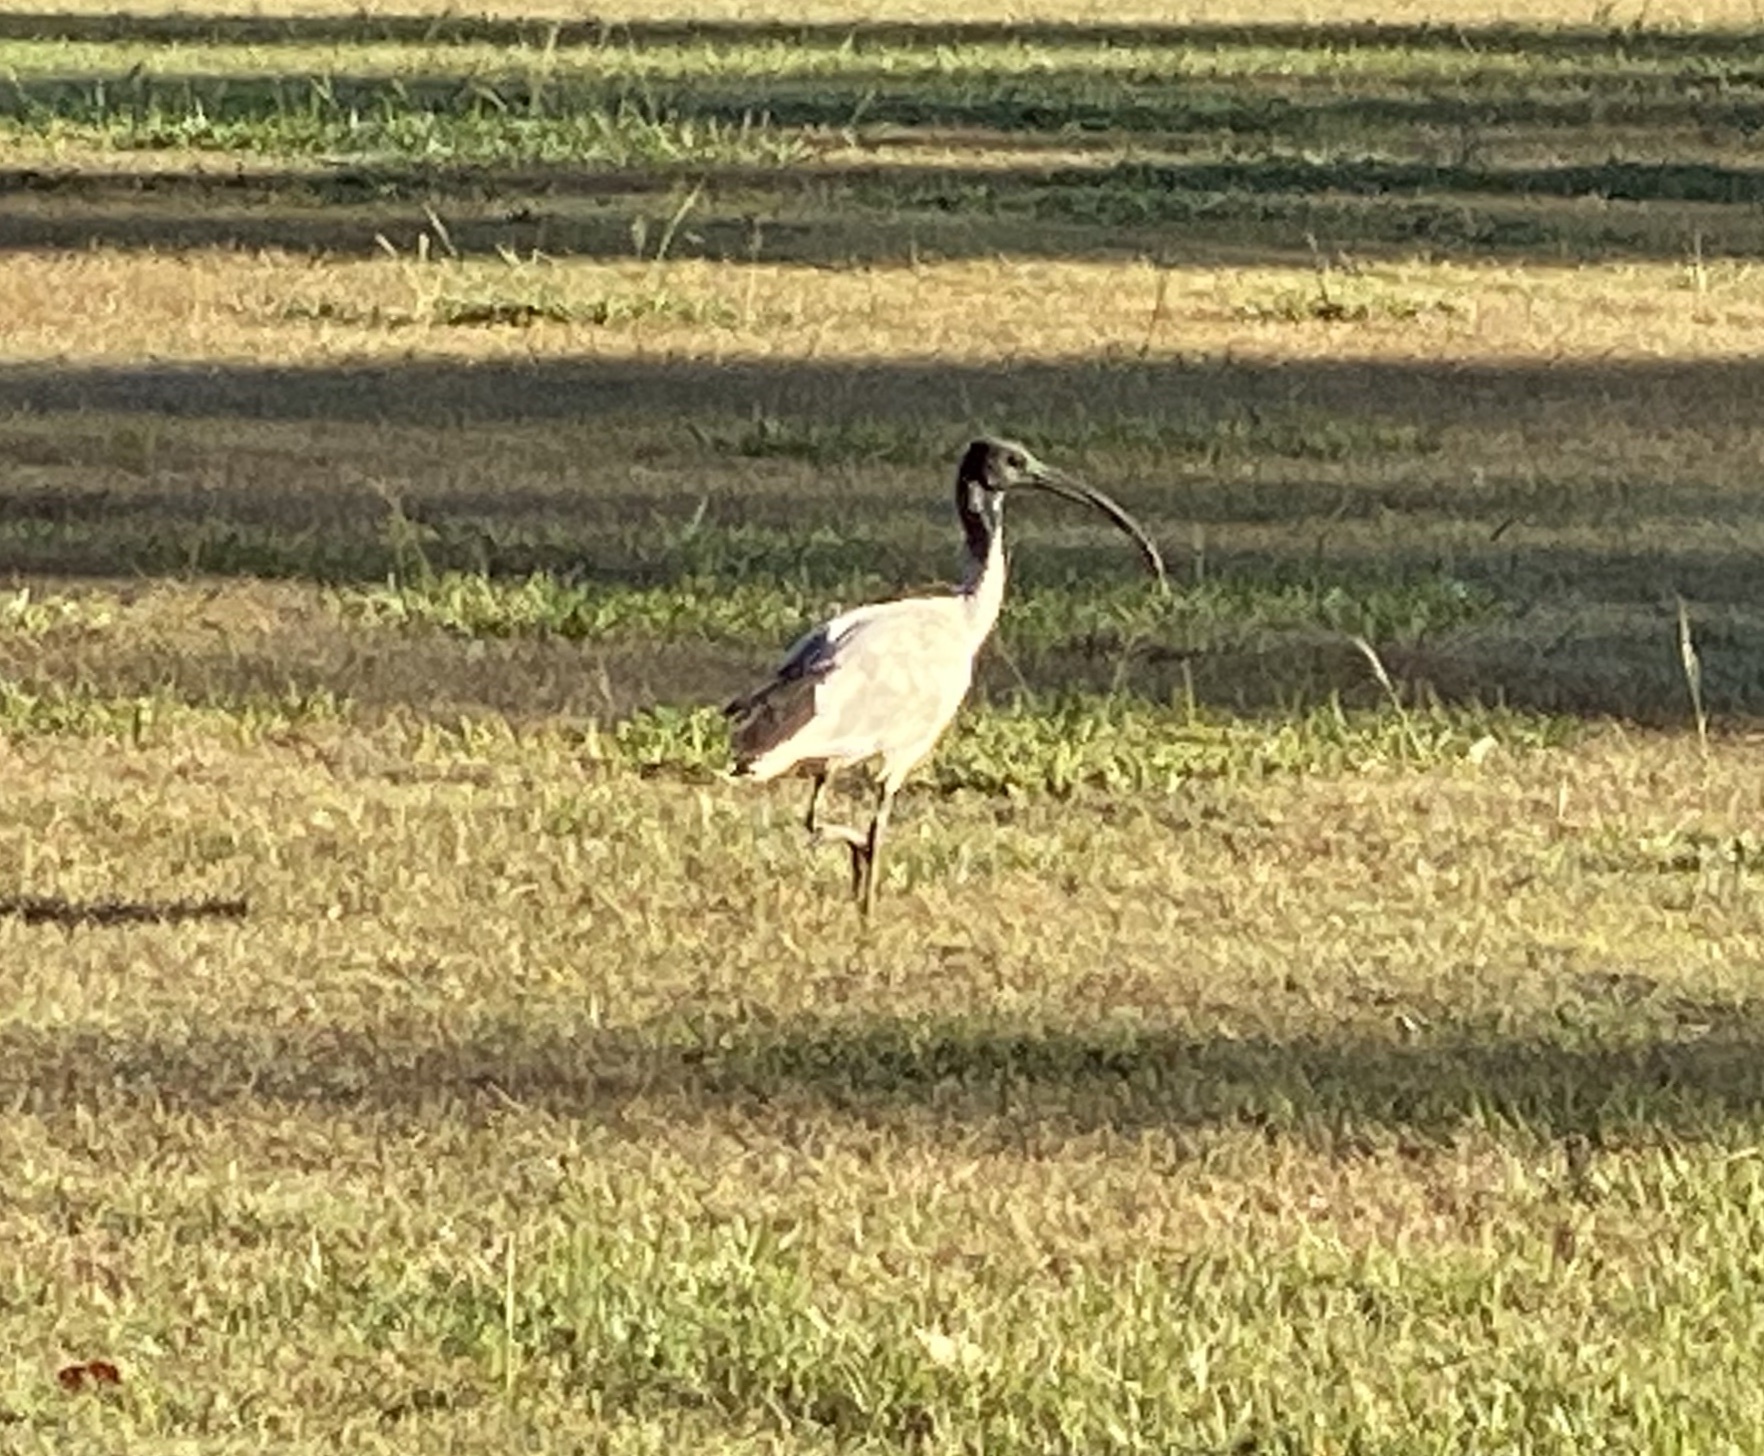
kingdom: Animalia
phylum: Chordata
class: Aves
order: Pelecaniformes
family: Threskiornithidae
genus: Threskiornis
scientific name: Threskiornis molucca
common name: Australian white ibis
